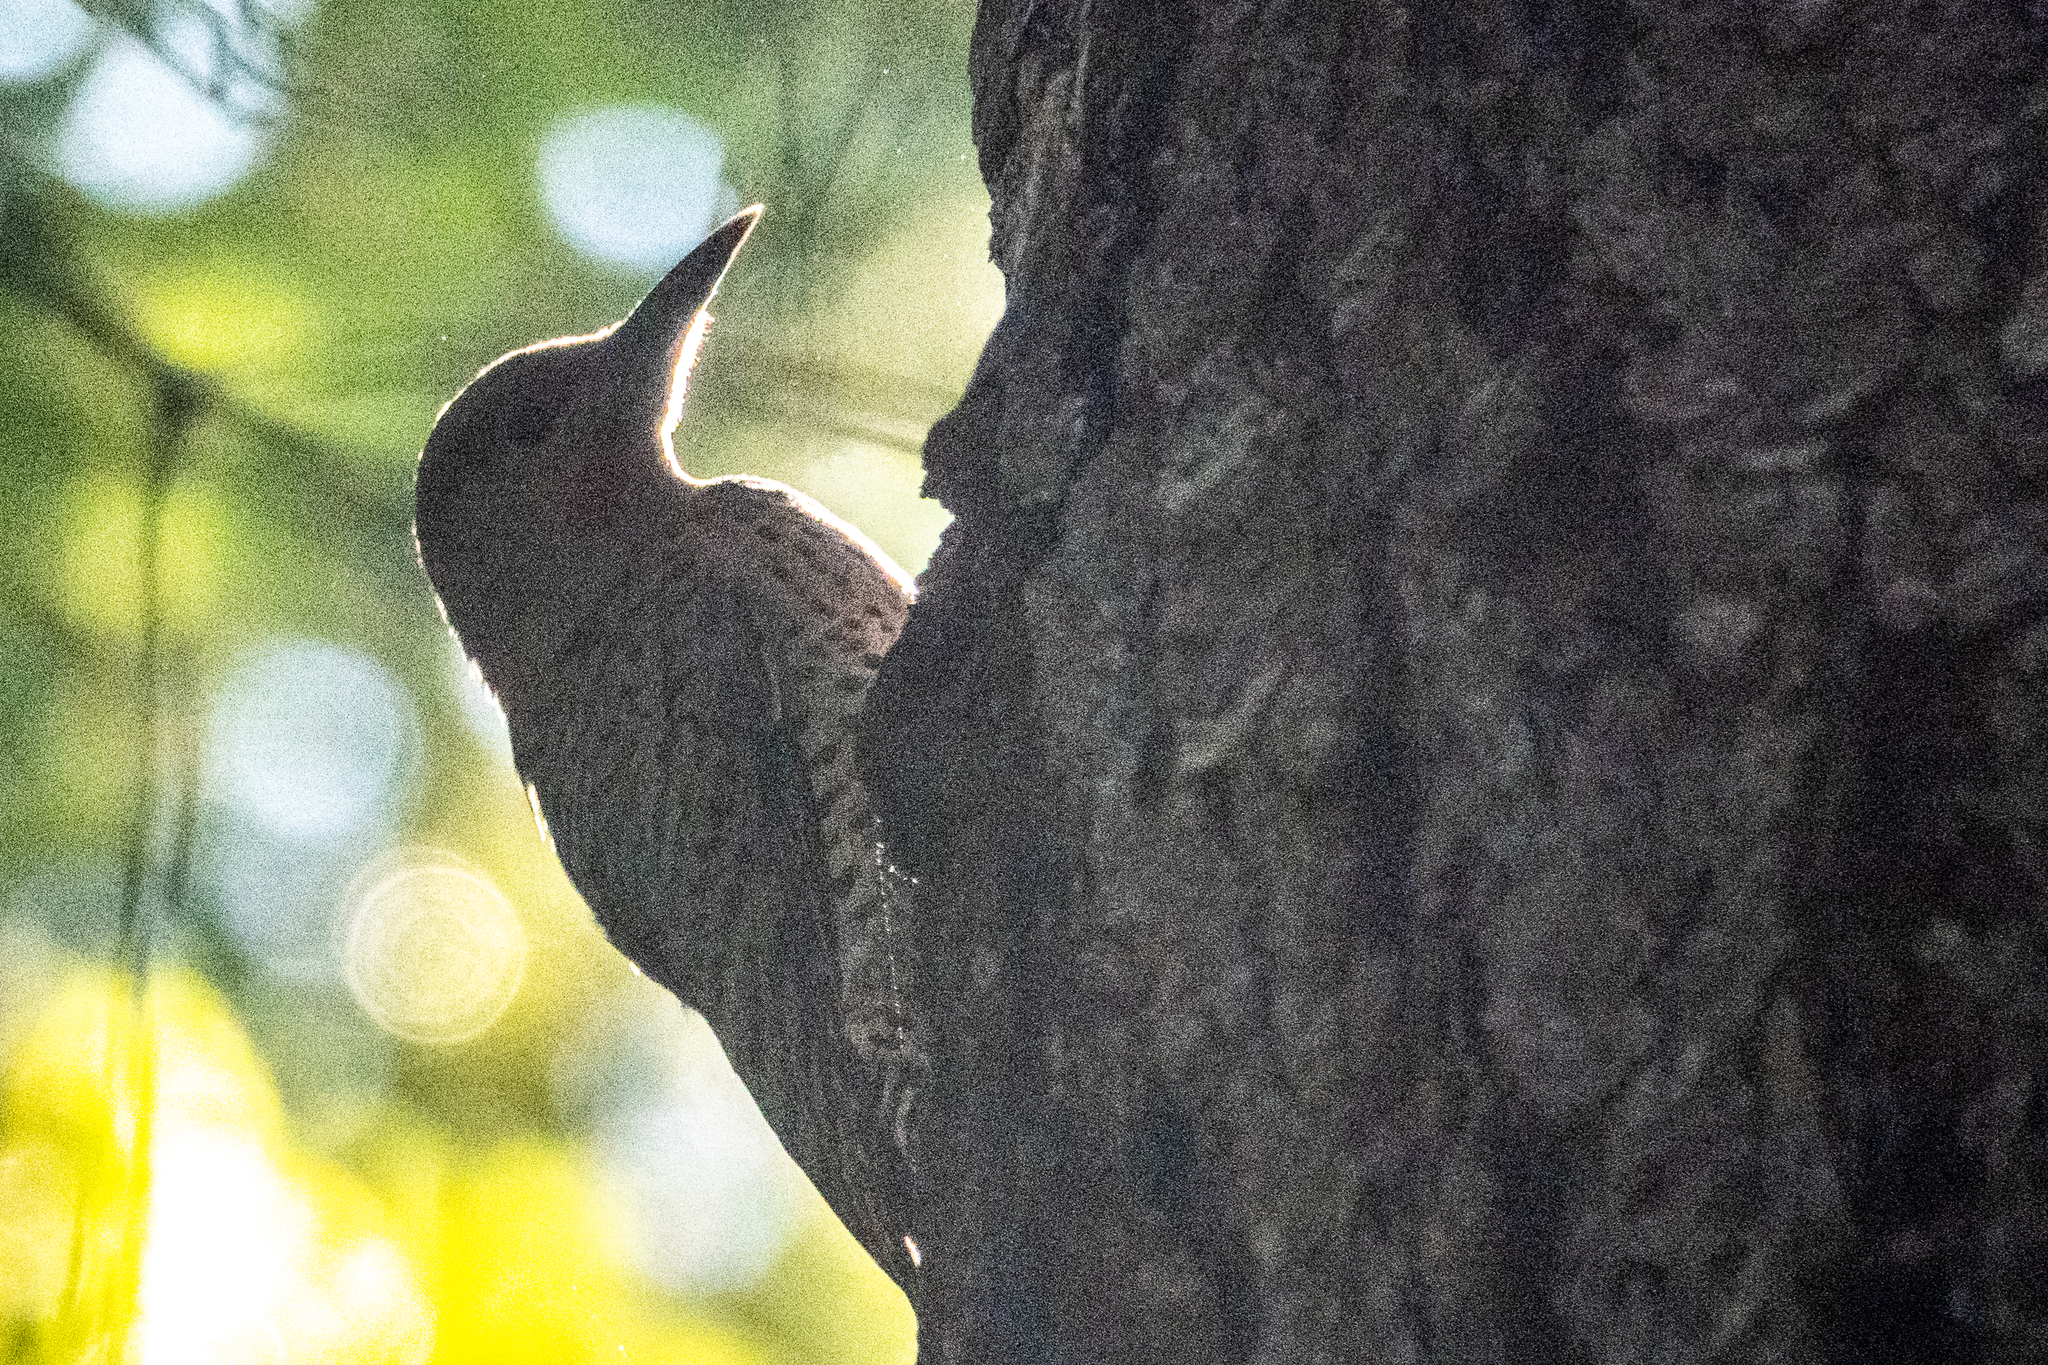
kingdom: Animalia
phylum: Chordata
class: Aves
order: Piciformes
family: Picidae
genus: Colaptes
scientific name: Colaptes auratus
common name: Northern flicker
